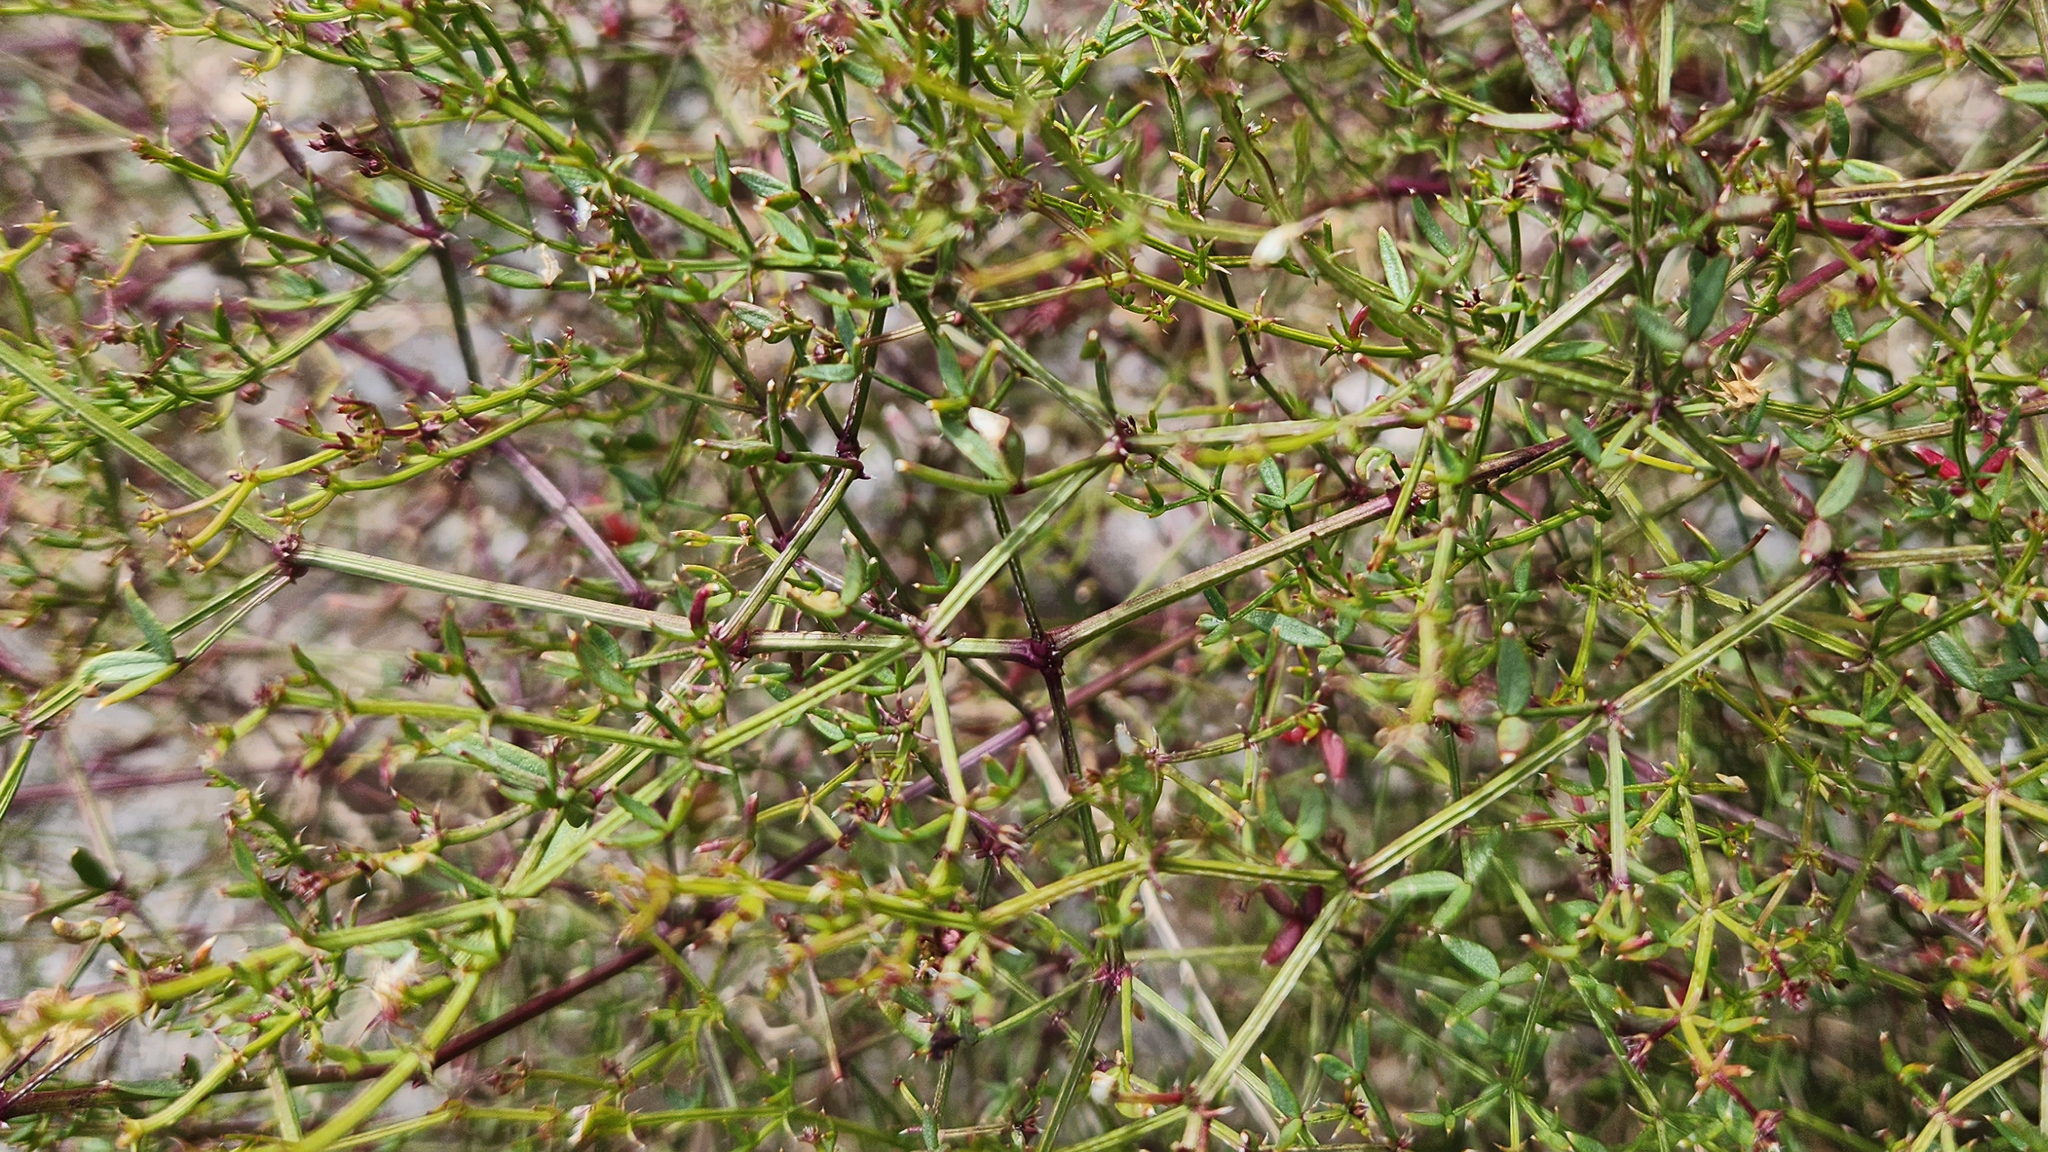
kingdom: Plantae
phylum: Tracheophyta
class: Magnoliopsida
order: Zygophyllales
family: Zygophyllaceae
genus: Fagonia
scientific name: Fagonia laevis
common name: California fagonbush
